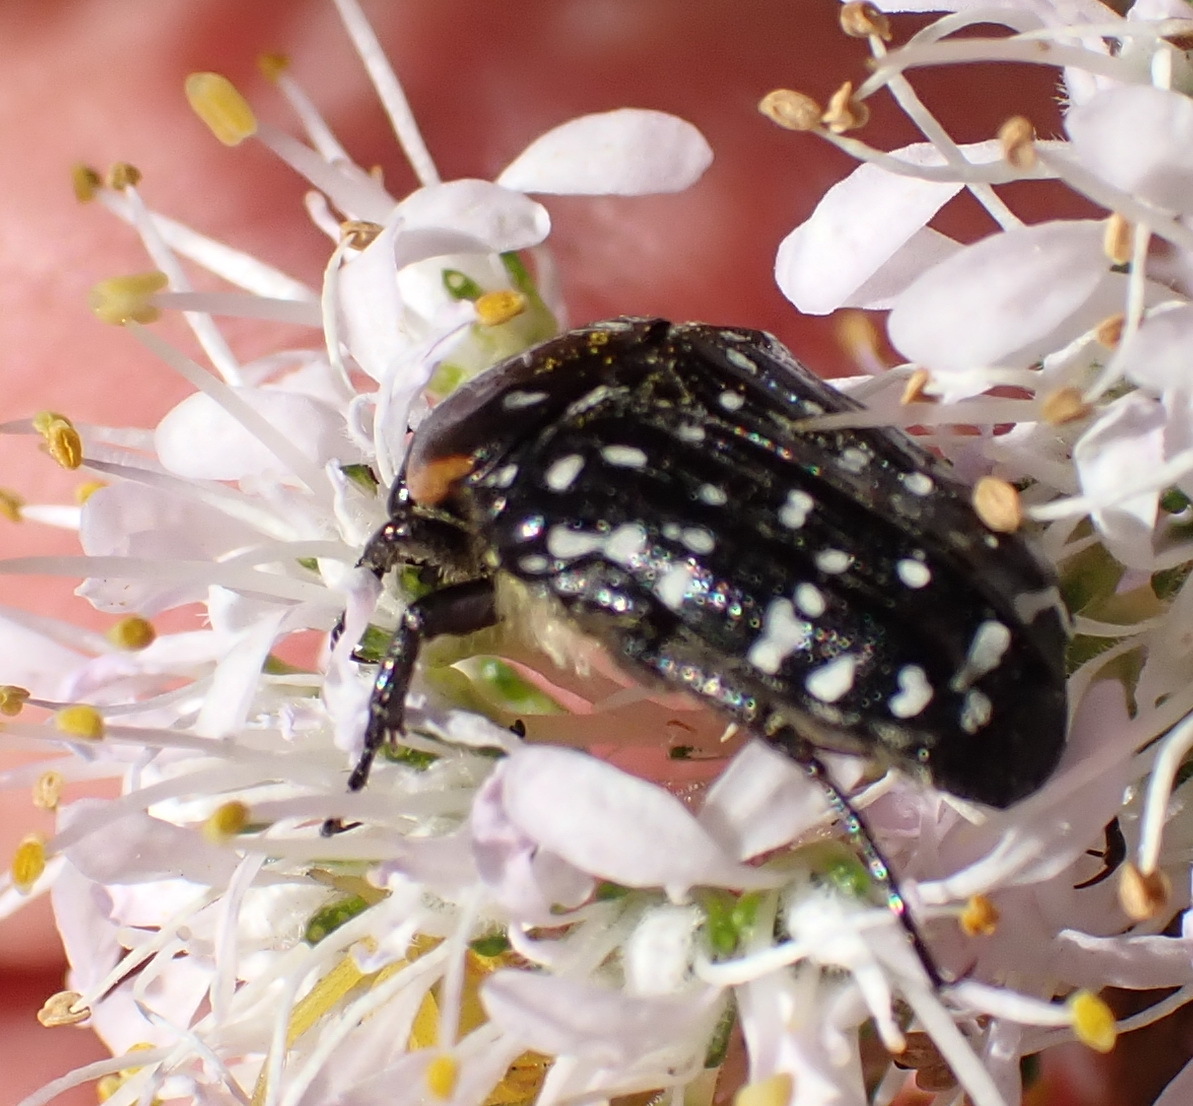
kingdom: Animalia
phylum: Arthropoda
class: Insecta
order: Coleoptera
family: Scarabaeidae
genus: Oxythyrea
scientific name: Oxythyrea
